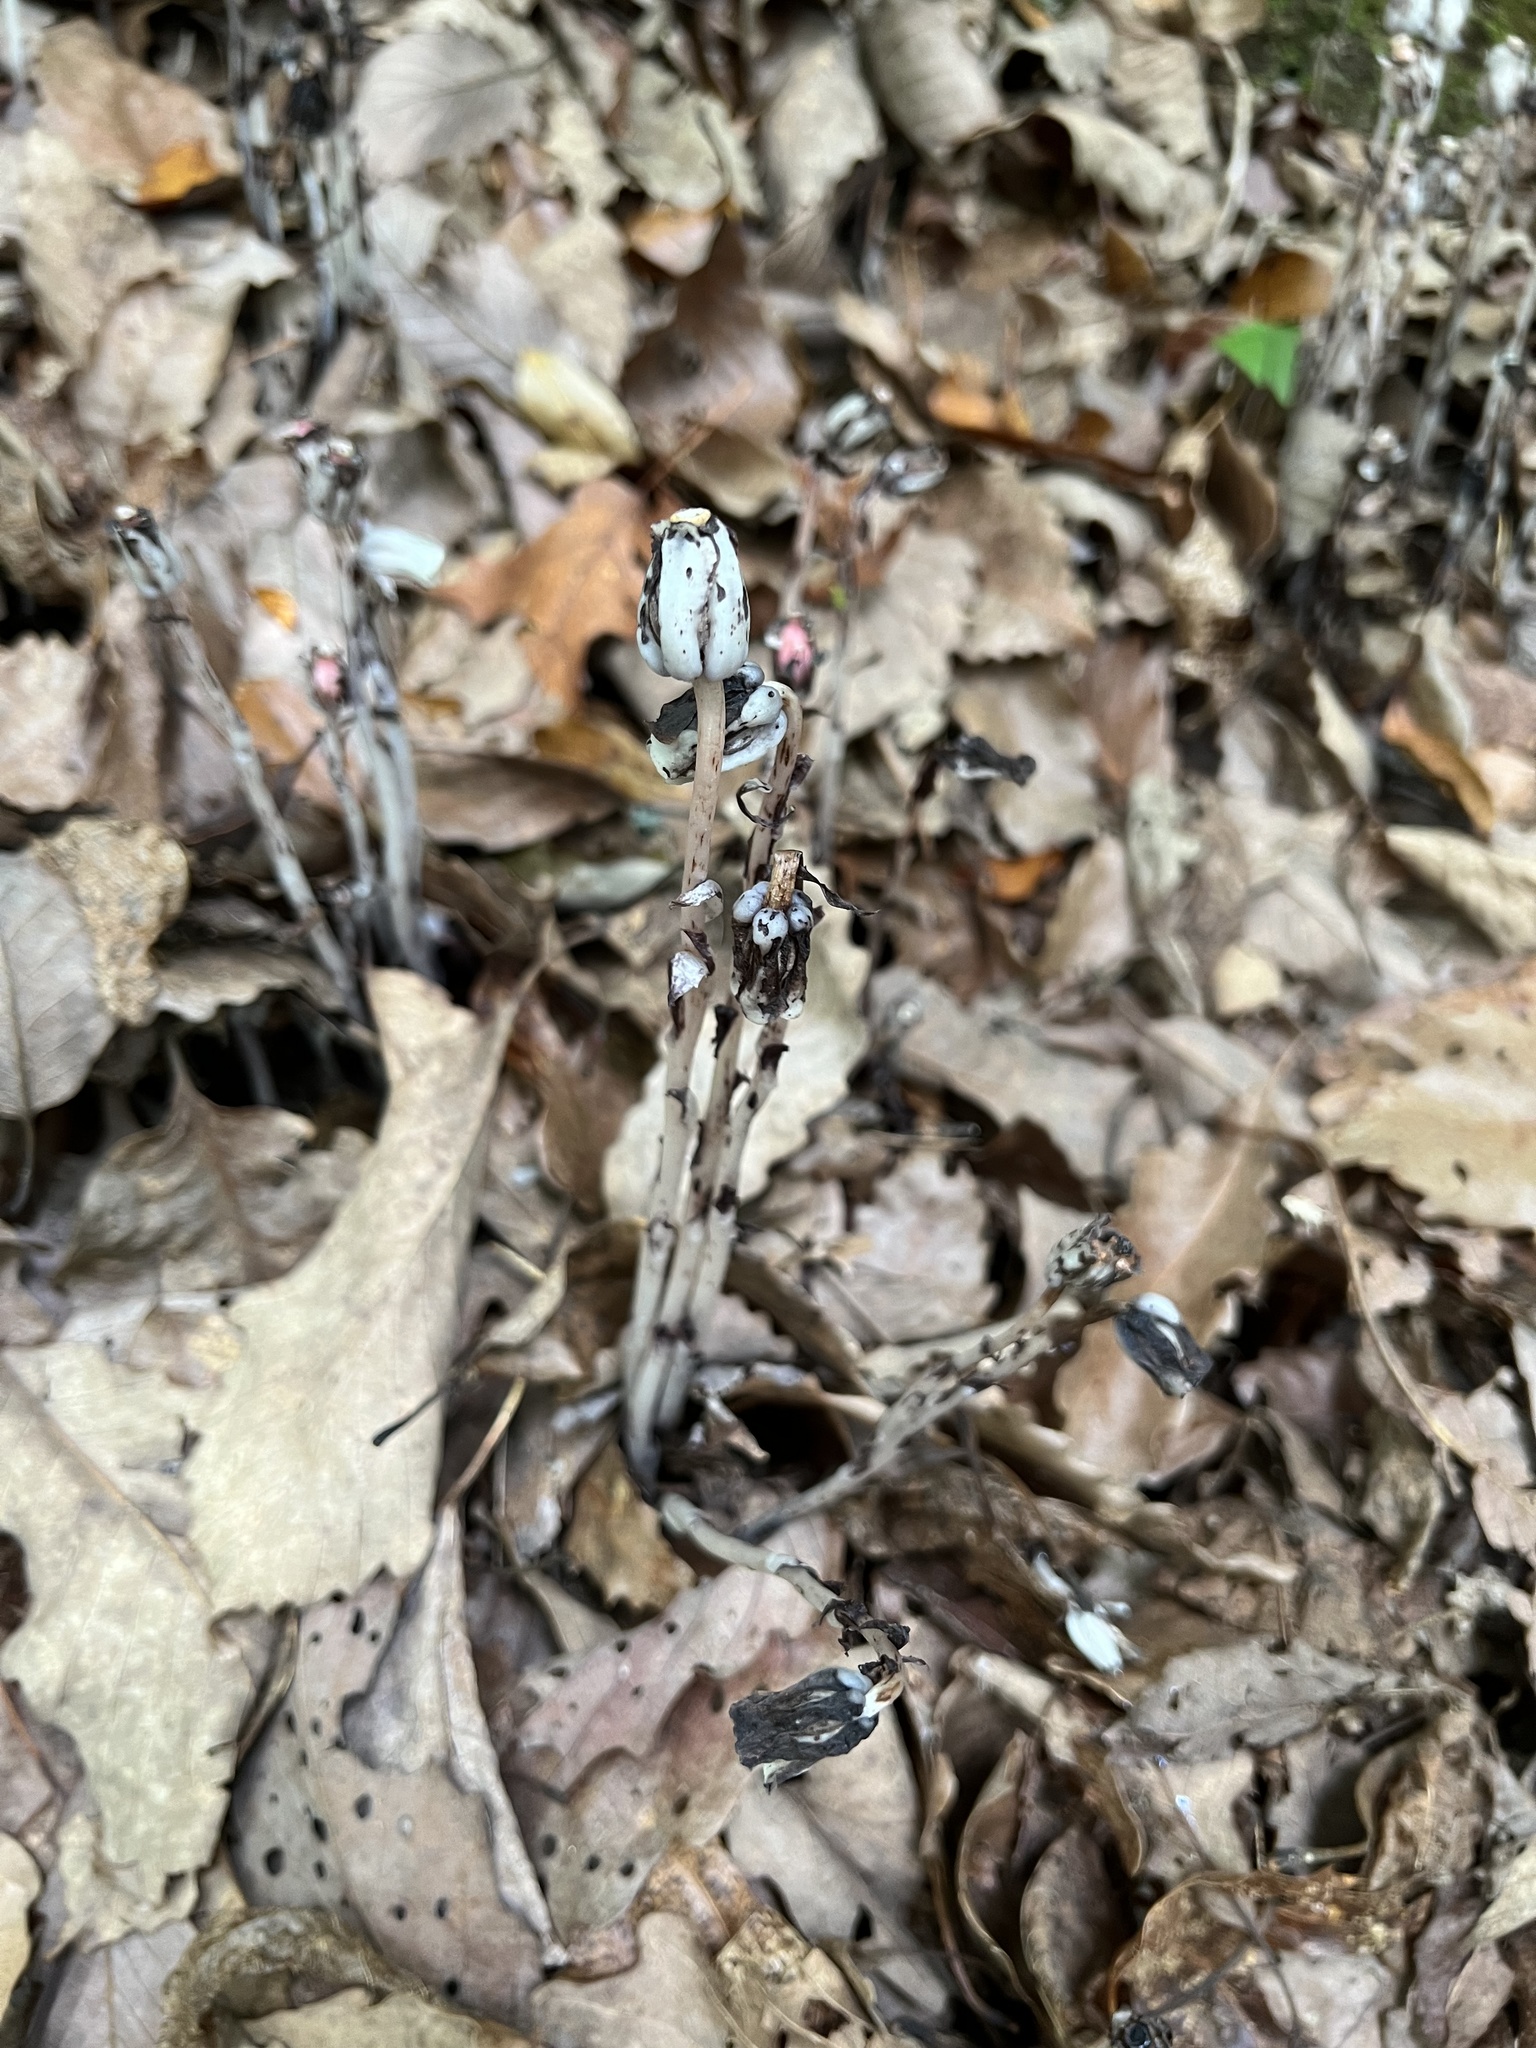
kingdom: Plantae
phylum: Tracheophyta
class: Magnoliopsida
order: Ericales
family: Ericaceae
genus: Monotropa
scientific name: Monotropa uniflora
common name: Convulsion root
